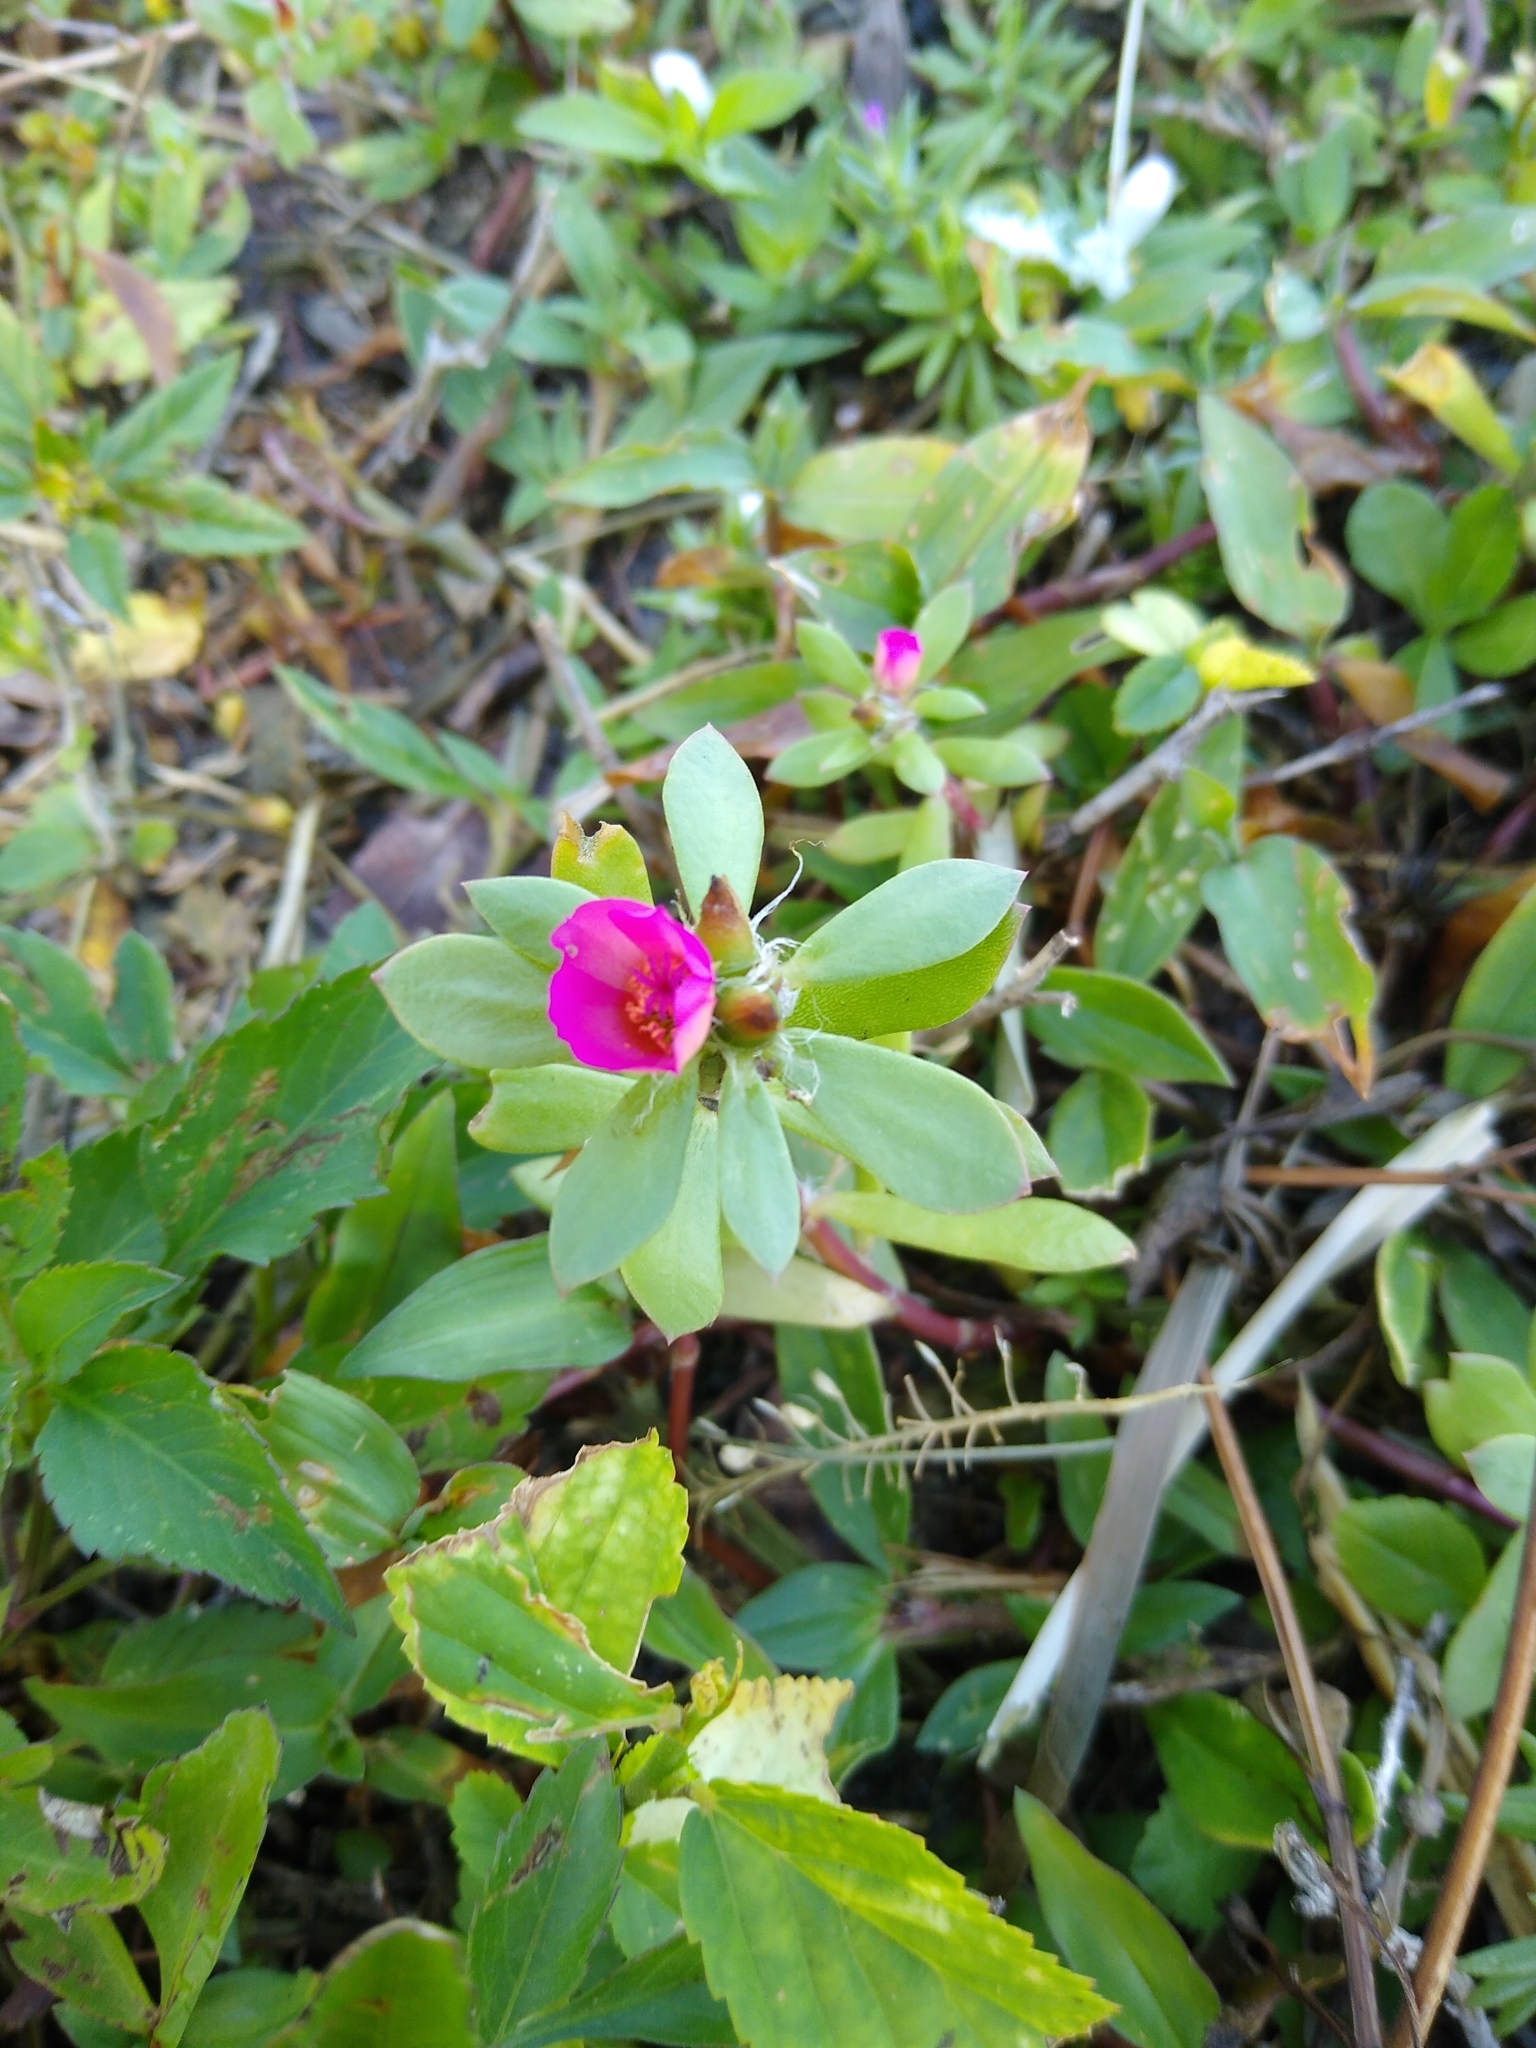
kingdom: Plantae
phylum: Tracheophyta
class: Magnoliopsida
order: Caryophyllales
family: Portulacaceae
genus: Portulaca
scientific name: Portulaca amilis
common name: Paraguayan purslane
